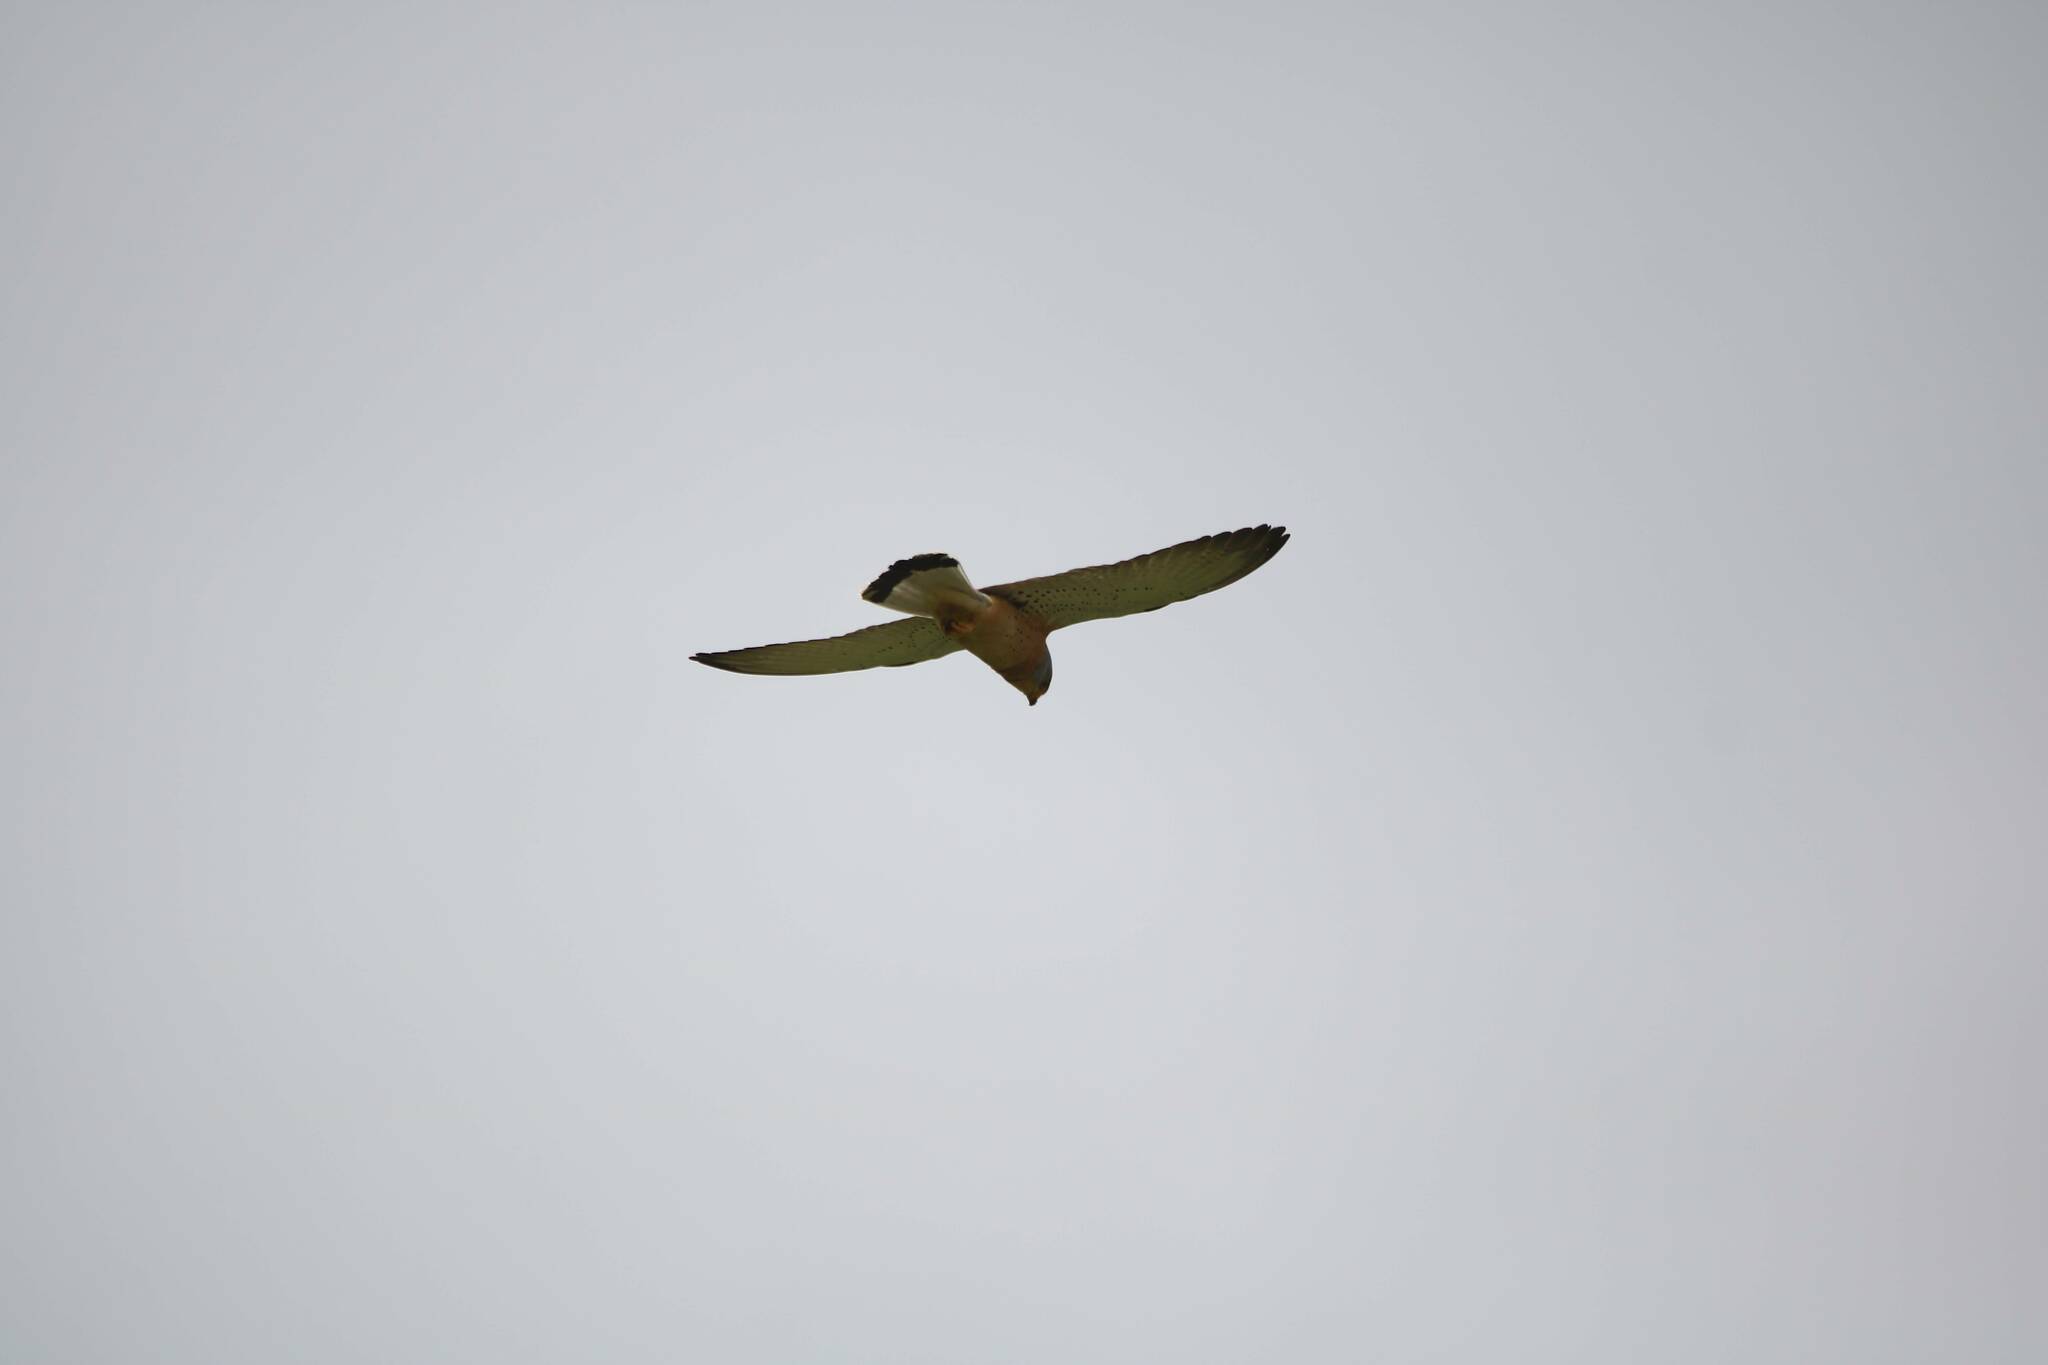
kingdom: Animalia
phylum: Chordata
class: Aves
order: Falconiformes
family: Falconidae
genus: Falco
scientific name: Falco naumanni
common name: Lesser kestrel
